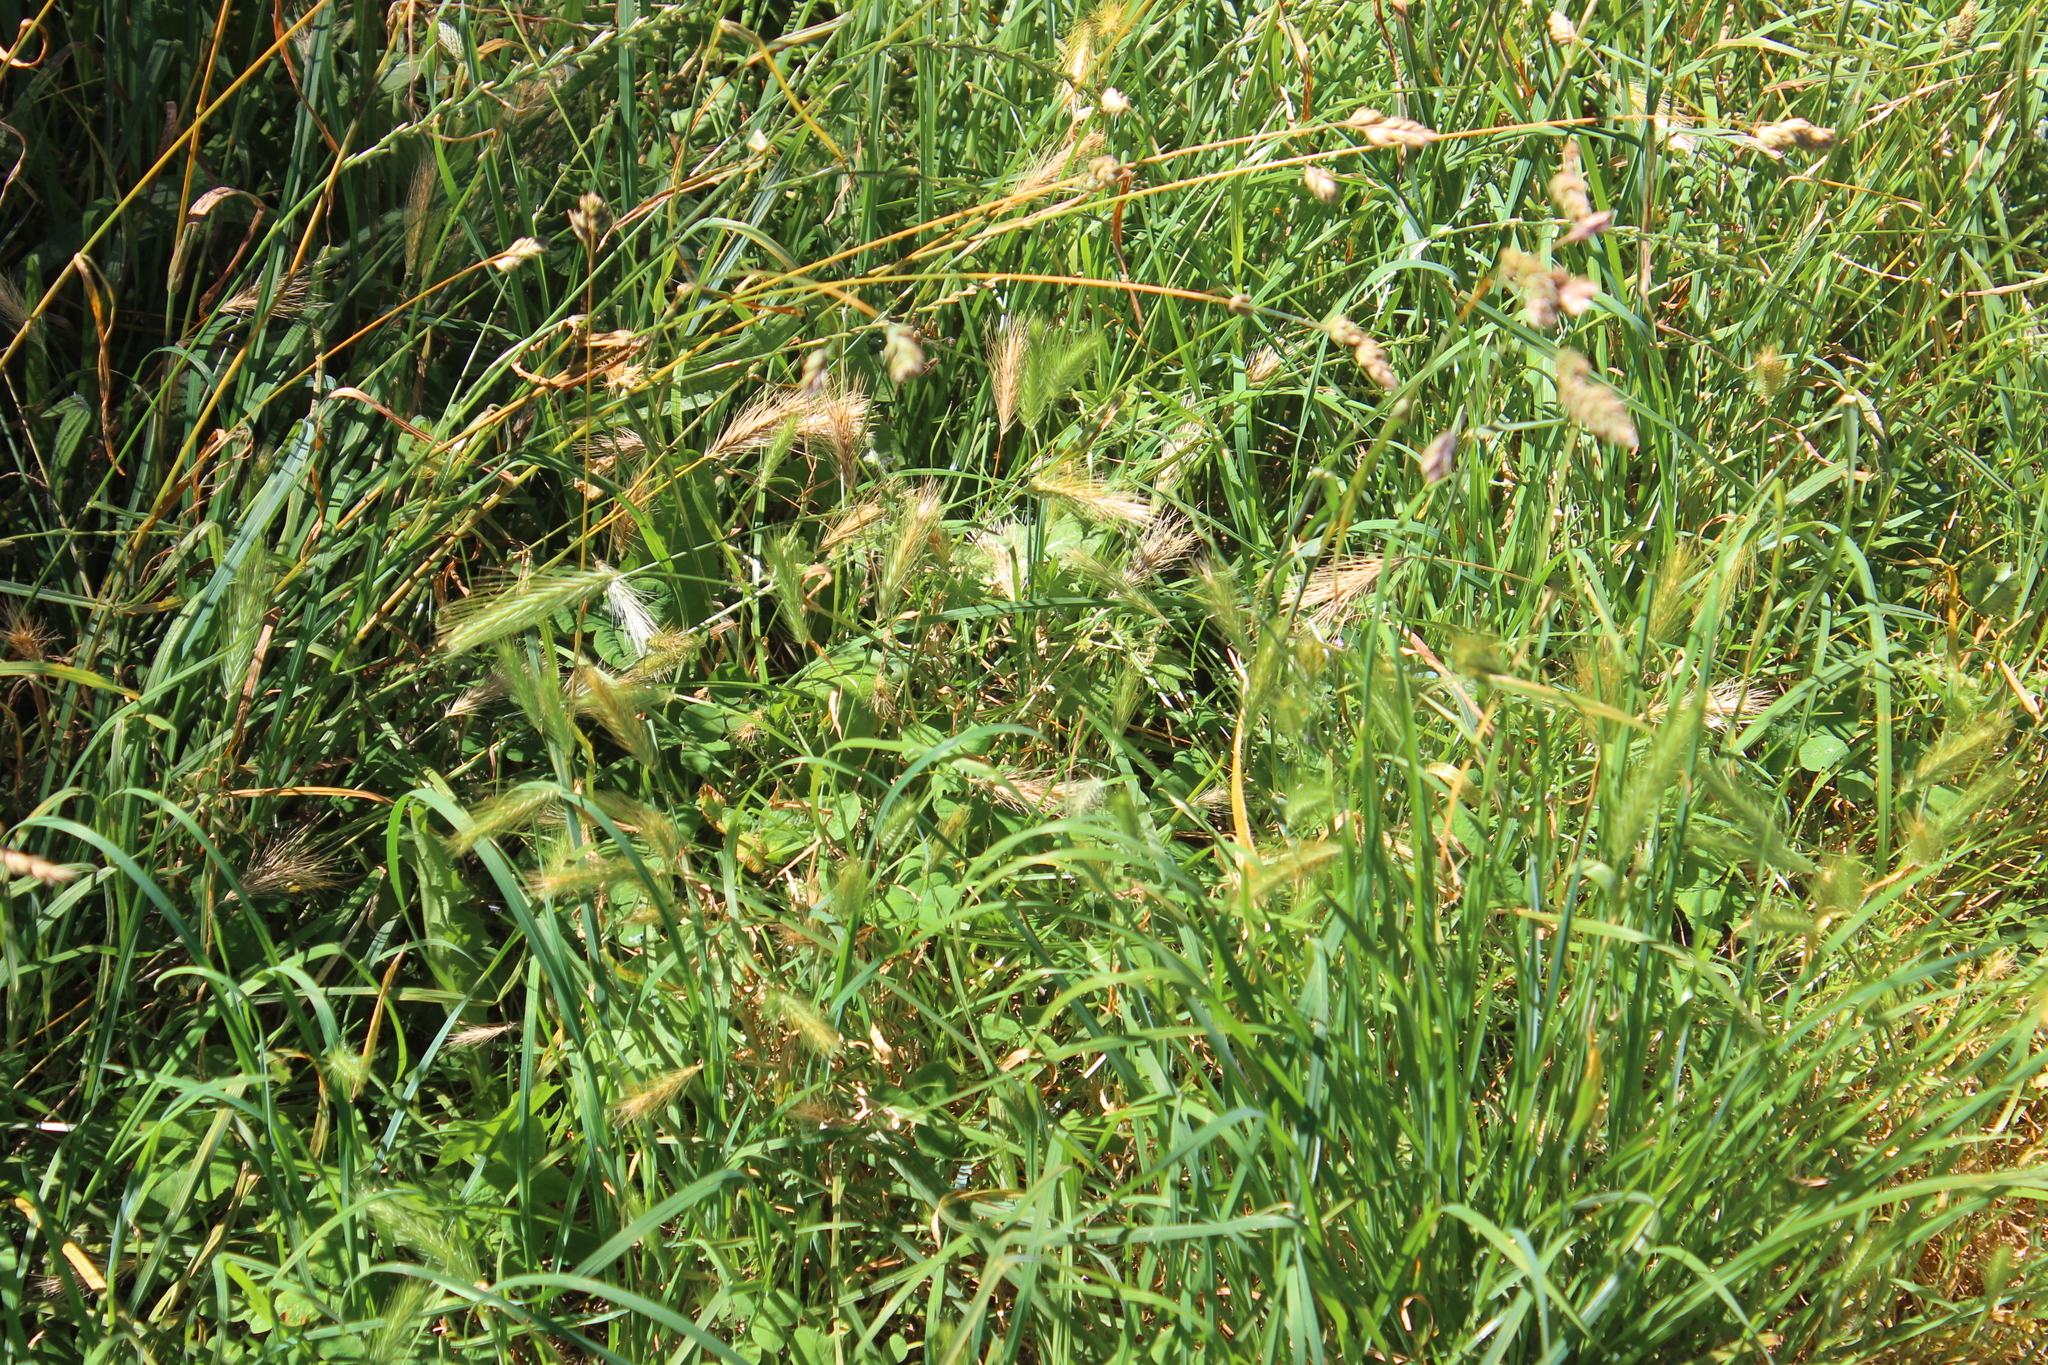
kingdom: Plantae
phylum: Tracheophyta
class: Liliopsida
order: Poales
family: Poaceae
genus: Hordeum
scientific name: Hordeum murinum
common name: Wall barley
